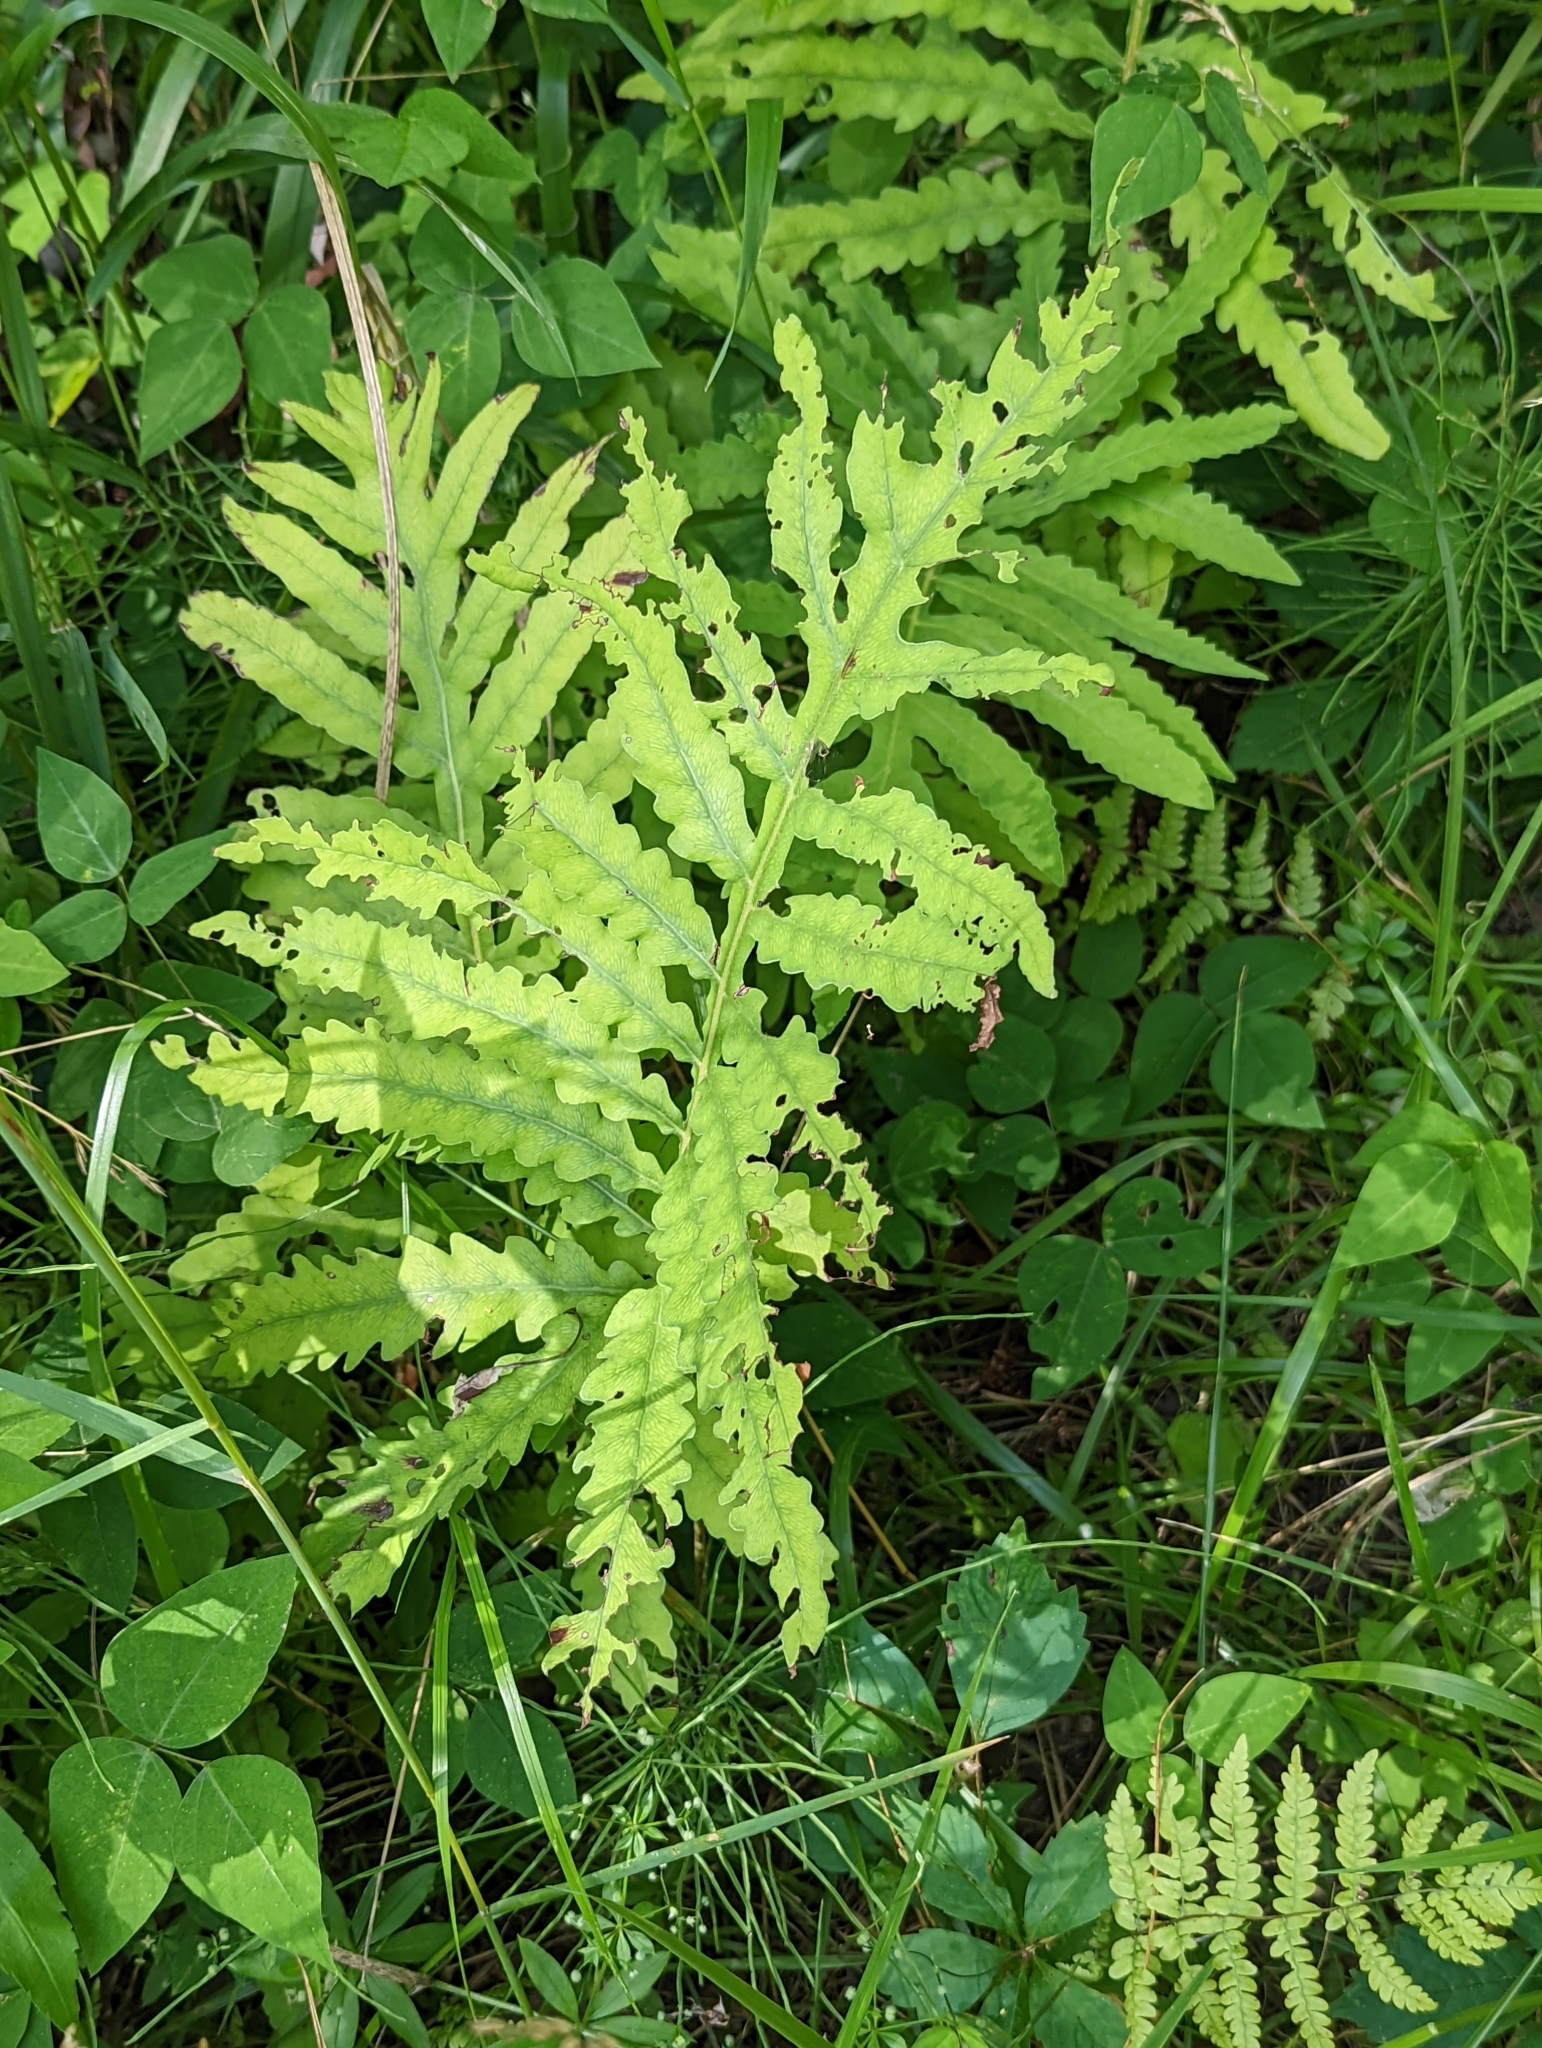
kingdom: Plantae
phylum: Tracheophyta
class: Polypodiopsida
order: Polypodiales
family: Onocleaceae
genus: Onoclea
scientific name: Onoclea sensibilis
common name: Sensitive fern
